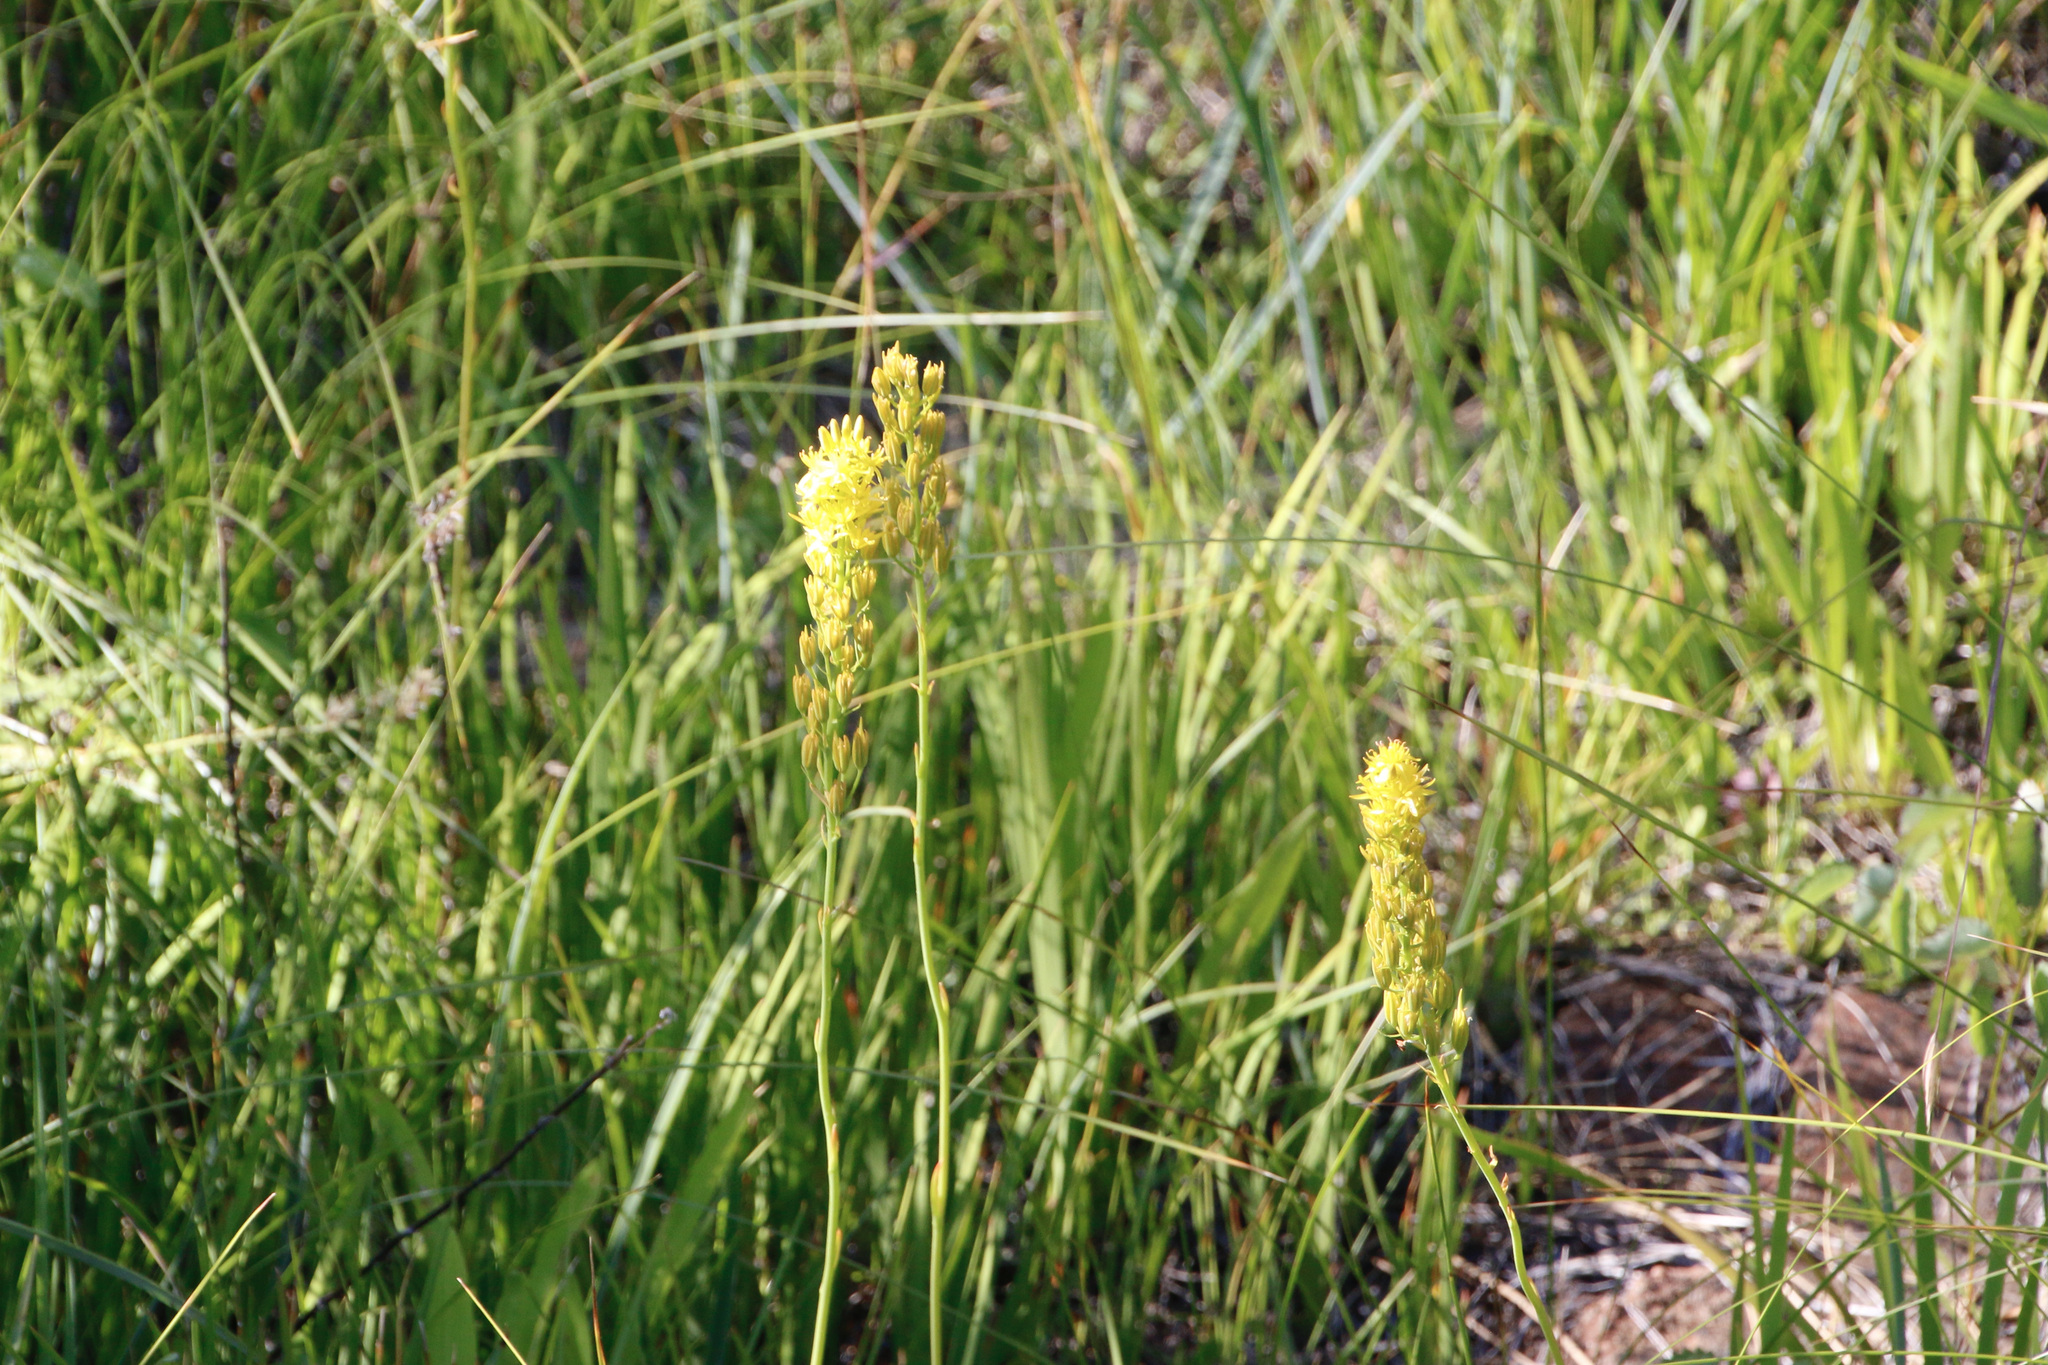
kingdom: Plantae
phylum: Tracheophyta
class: Liliopsida
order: Dioscoreales
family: Nartheciaceae
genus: Narthecium
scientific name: Narthecium californicum
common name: California bog-asphodel
